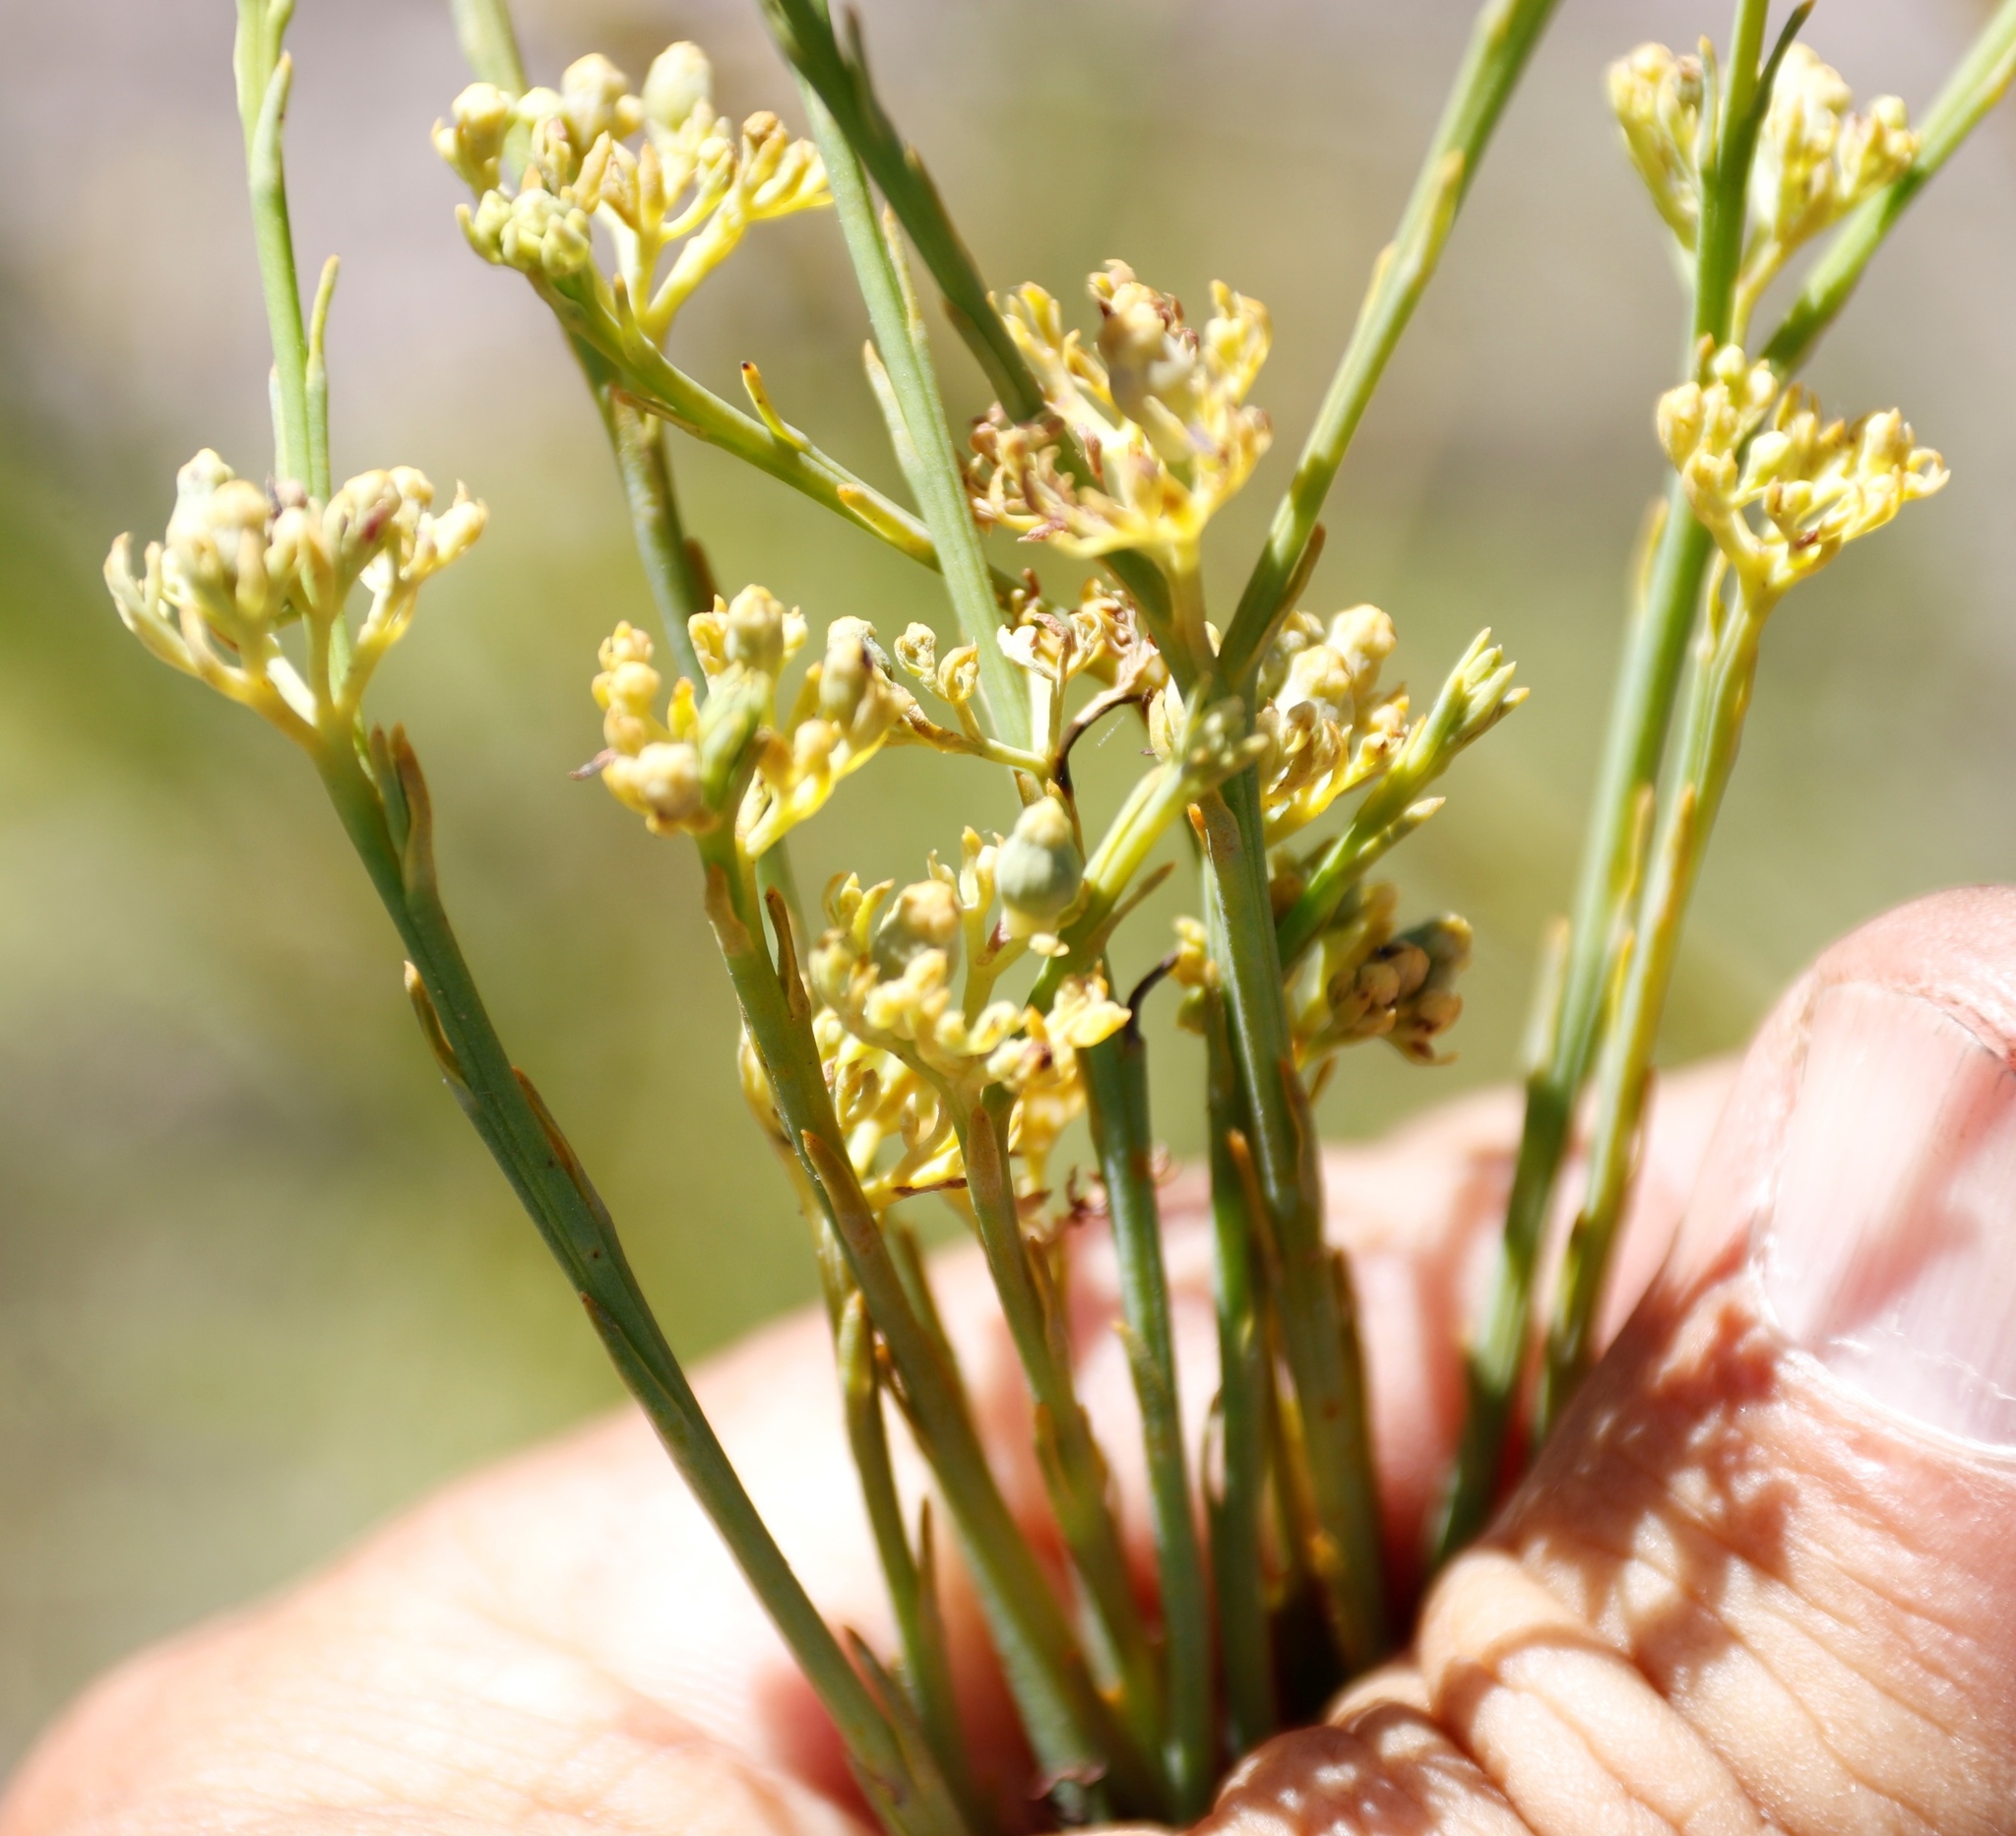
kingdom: Plantae
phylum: Tracheophyta
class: Magnoliopsida
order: Santalales
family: Thesiaceae
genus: Thesium
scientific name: Thesium strictum
